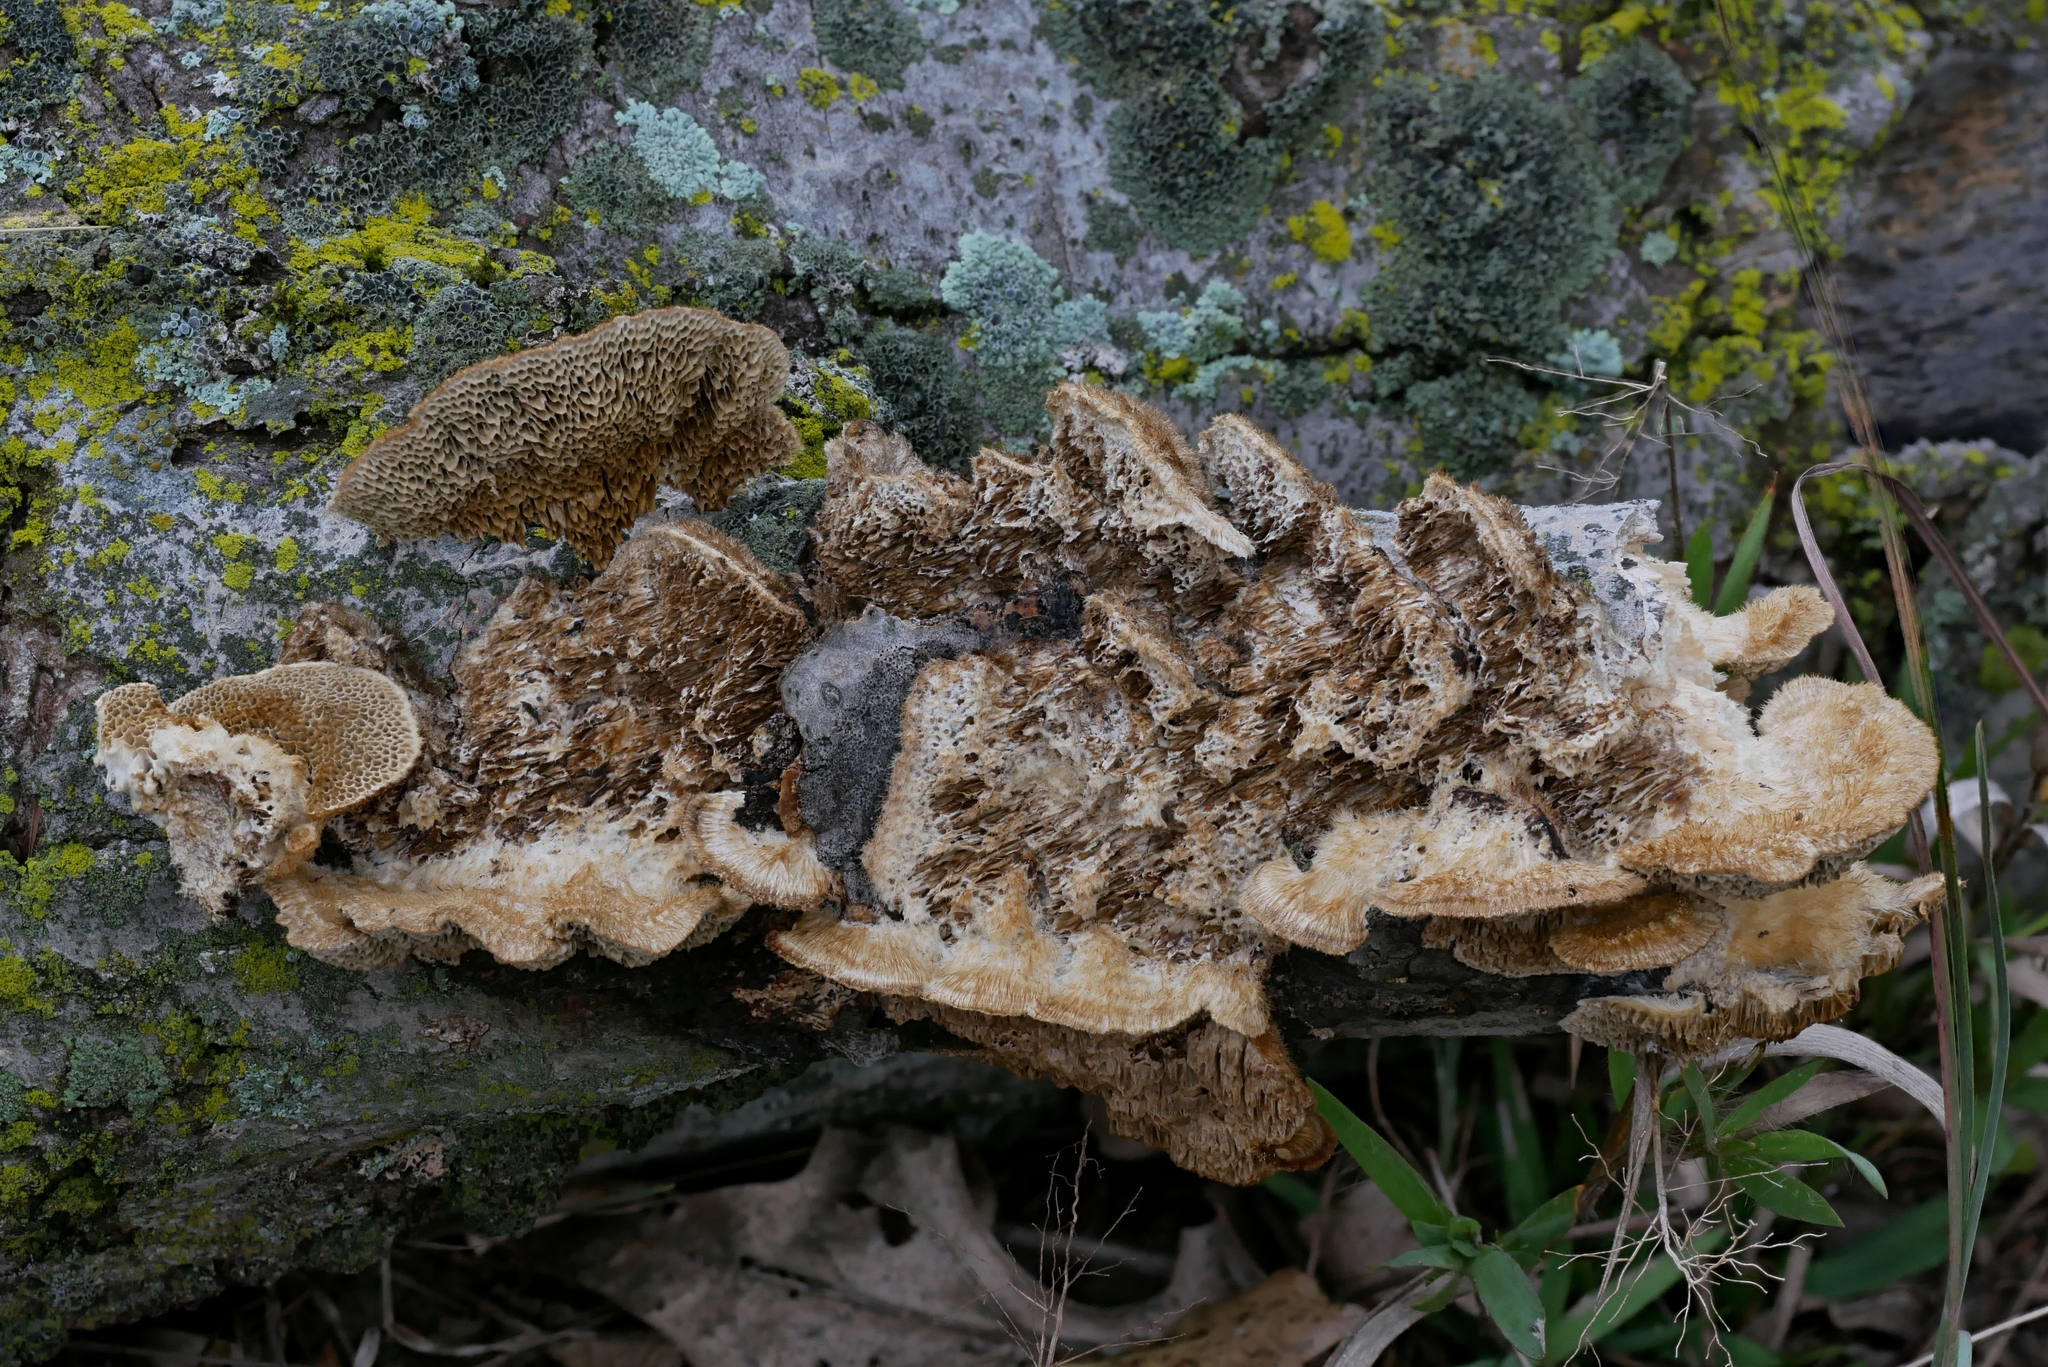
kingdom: Fungi
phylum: Basidiomycota
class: Agaricomycetes
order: Polyporales
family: Polyporaceae
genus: Trametes
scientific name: Trametes trogii
